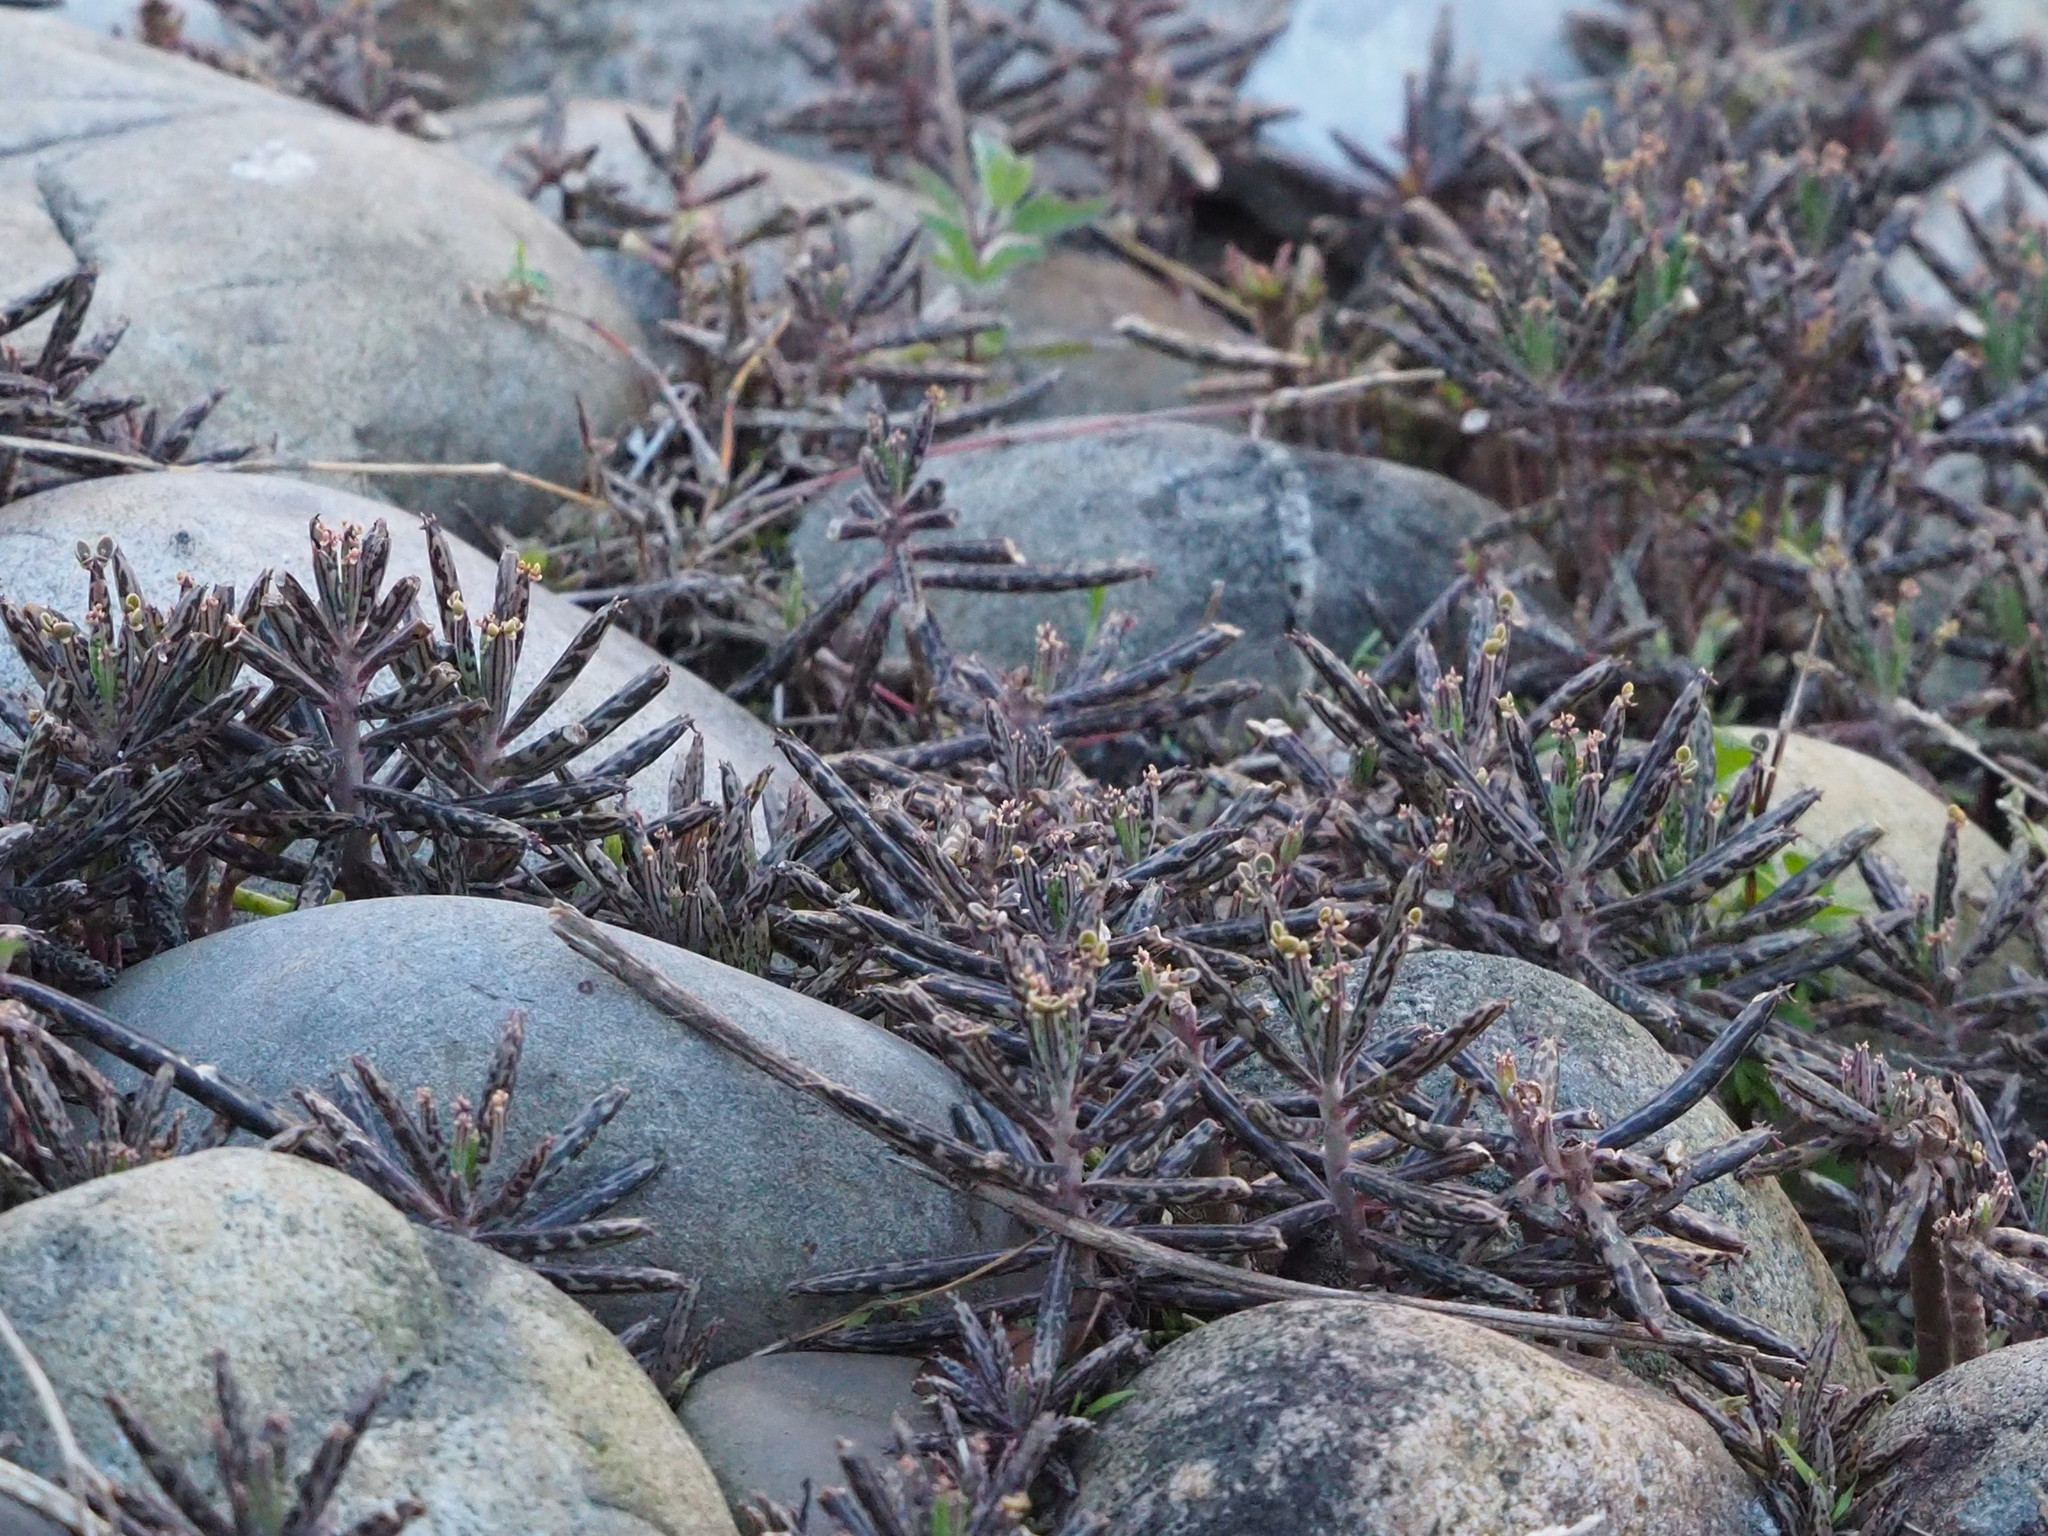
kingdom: Plantae
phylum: Tracheophyta
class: Magnoliopsida
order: Saxifragales
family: Crassulaceae
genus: Kalanchoe
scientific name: Kalanchoe delagoensis
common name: Chandelier plant
